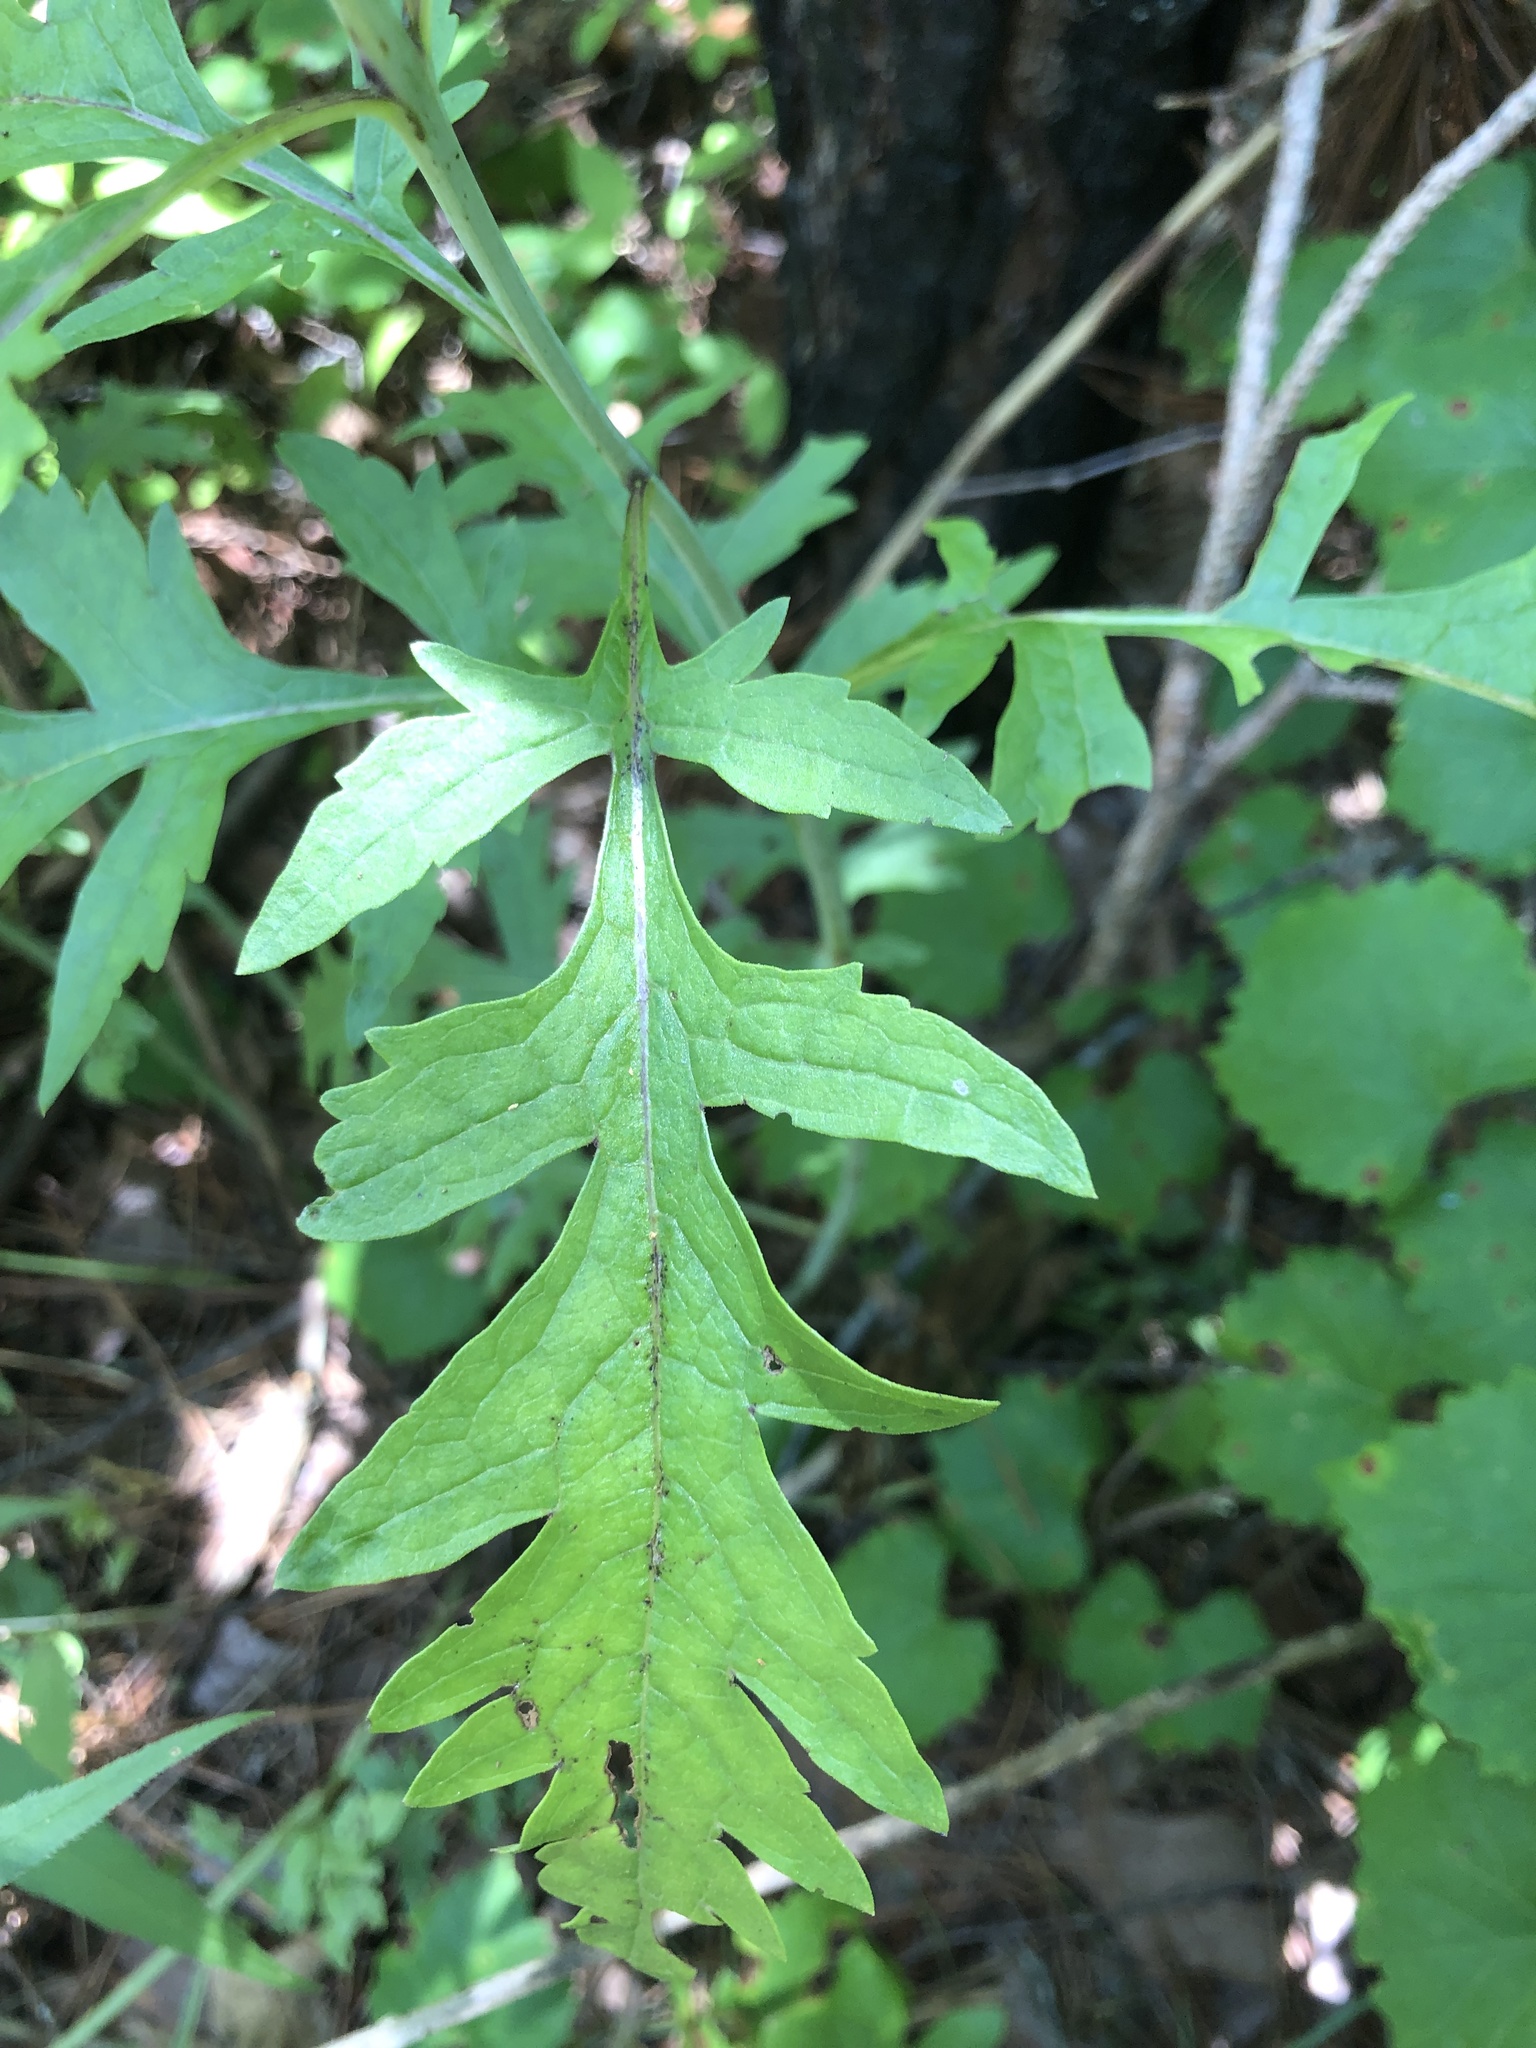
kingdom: Plantae
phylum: Tracheophyta
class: Magnoliopsida
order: Lamiales
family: Orobanchaceae
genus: Aureolaria
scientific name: Aureolaria flava
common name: Smooth false foxglove
